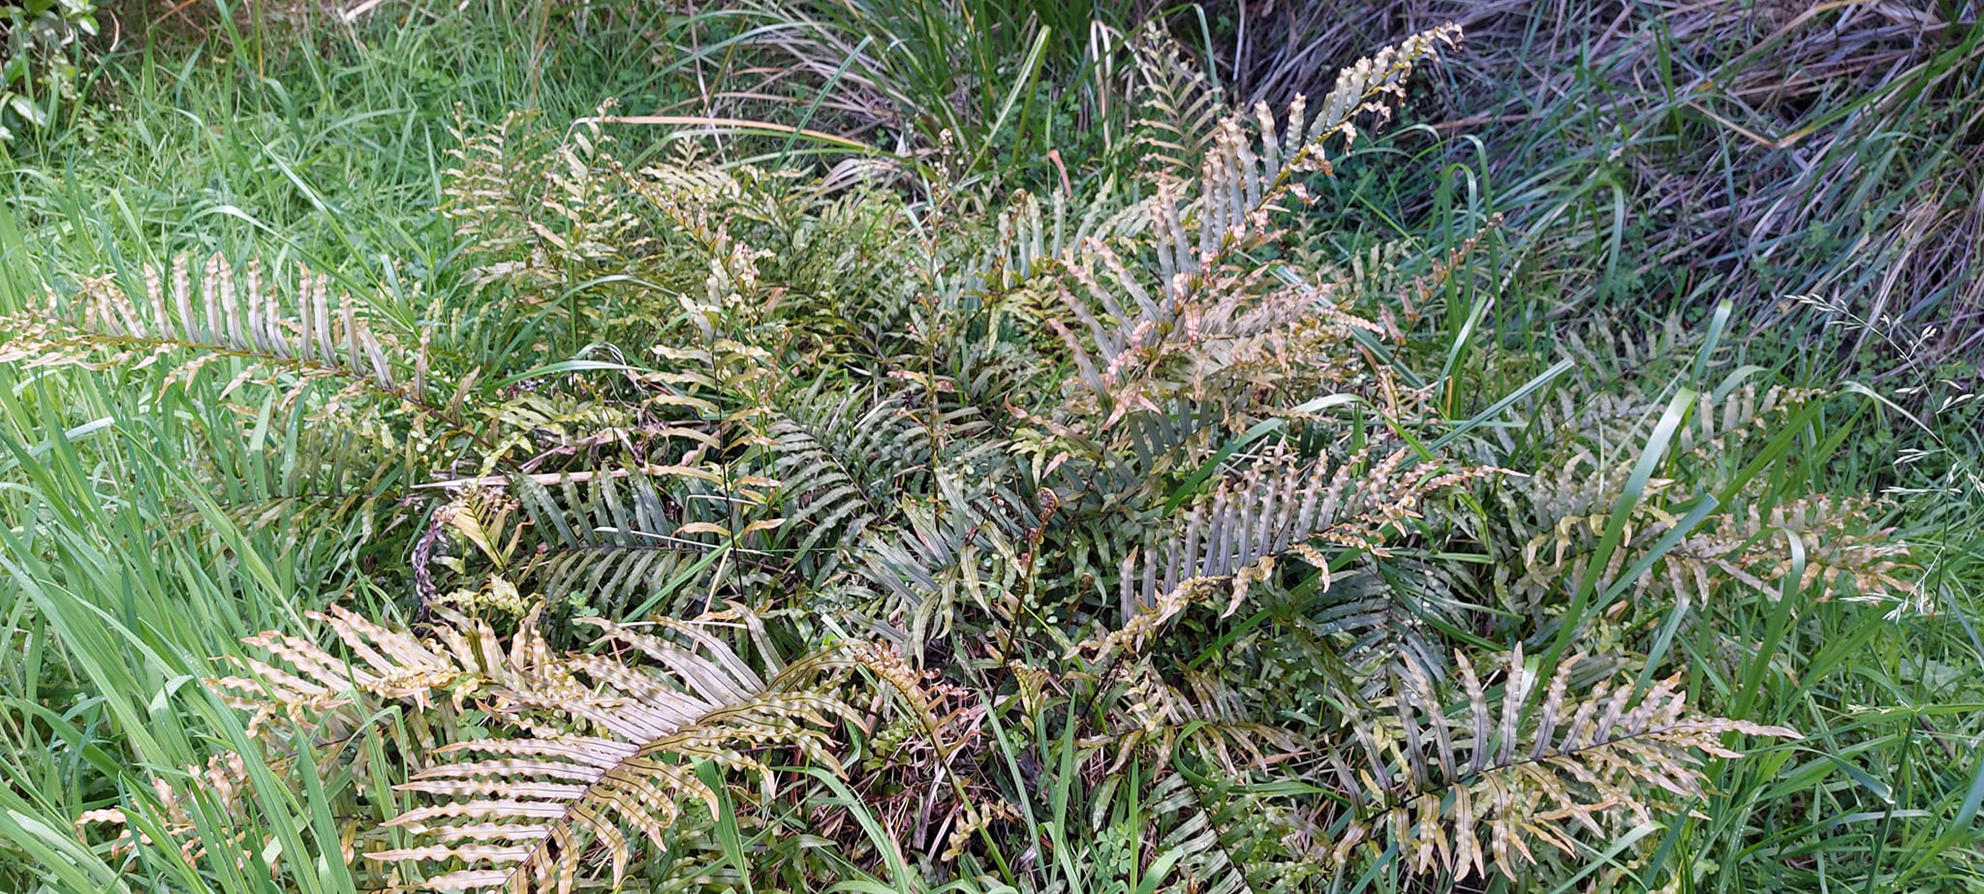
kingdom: Plantae
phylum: Tracheophyta
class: Polypodiopsida
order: Polypodiales
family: Blechnaceae
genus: Parablechnum
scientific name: Parablechnum minus
